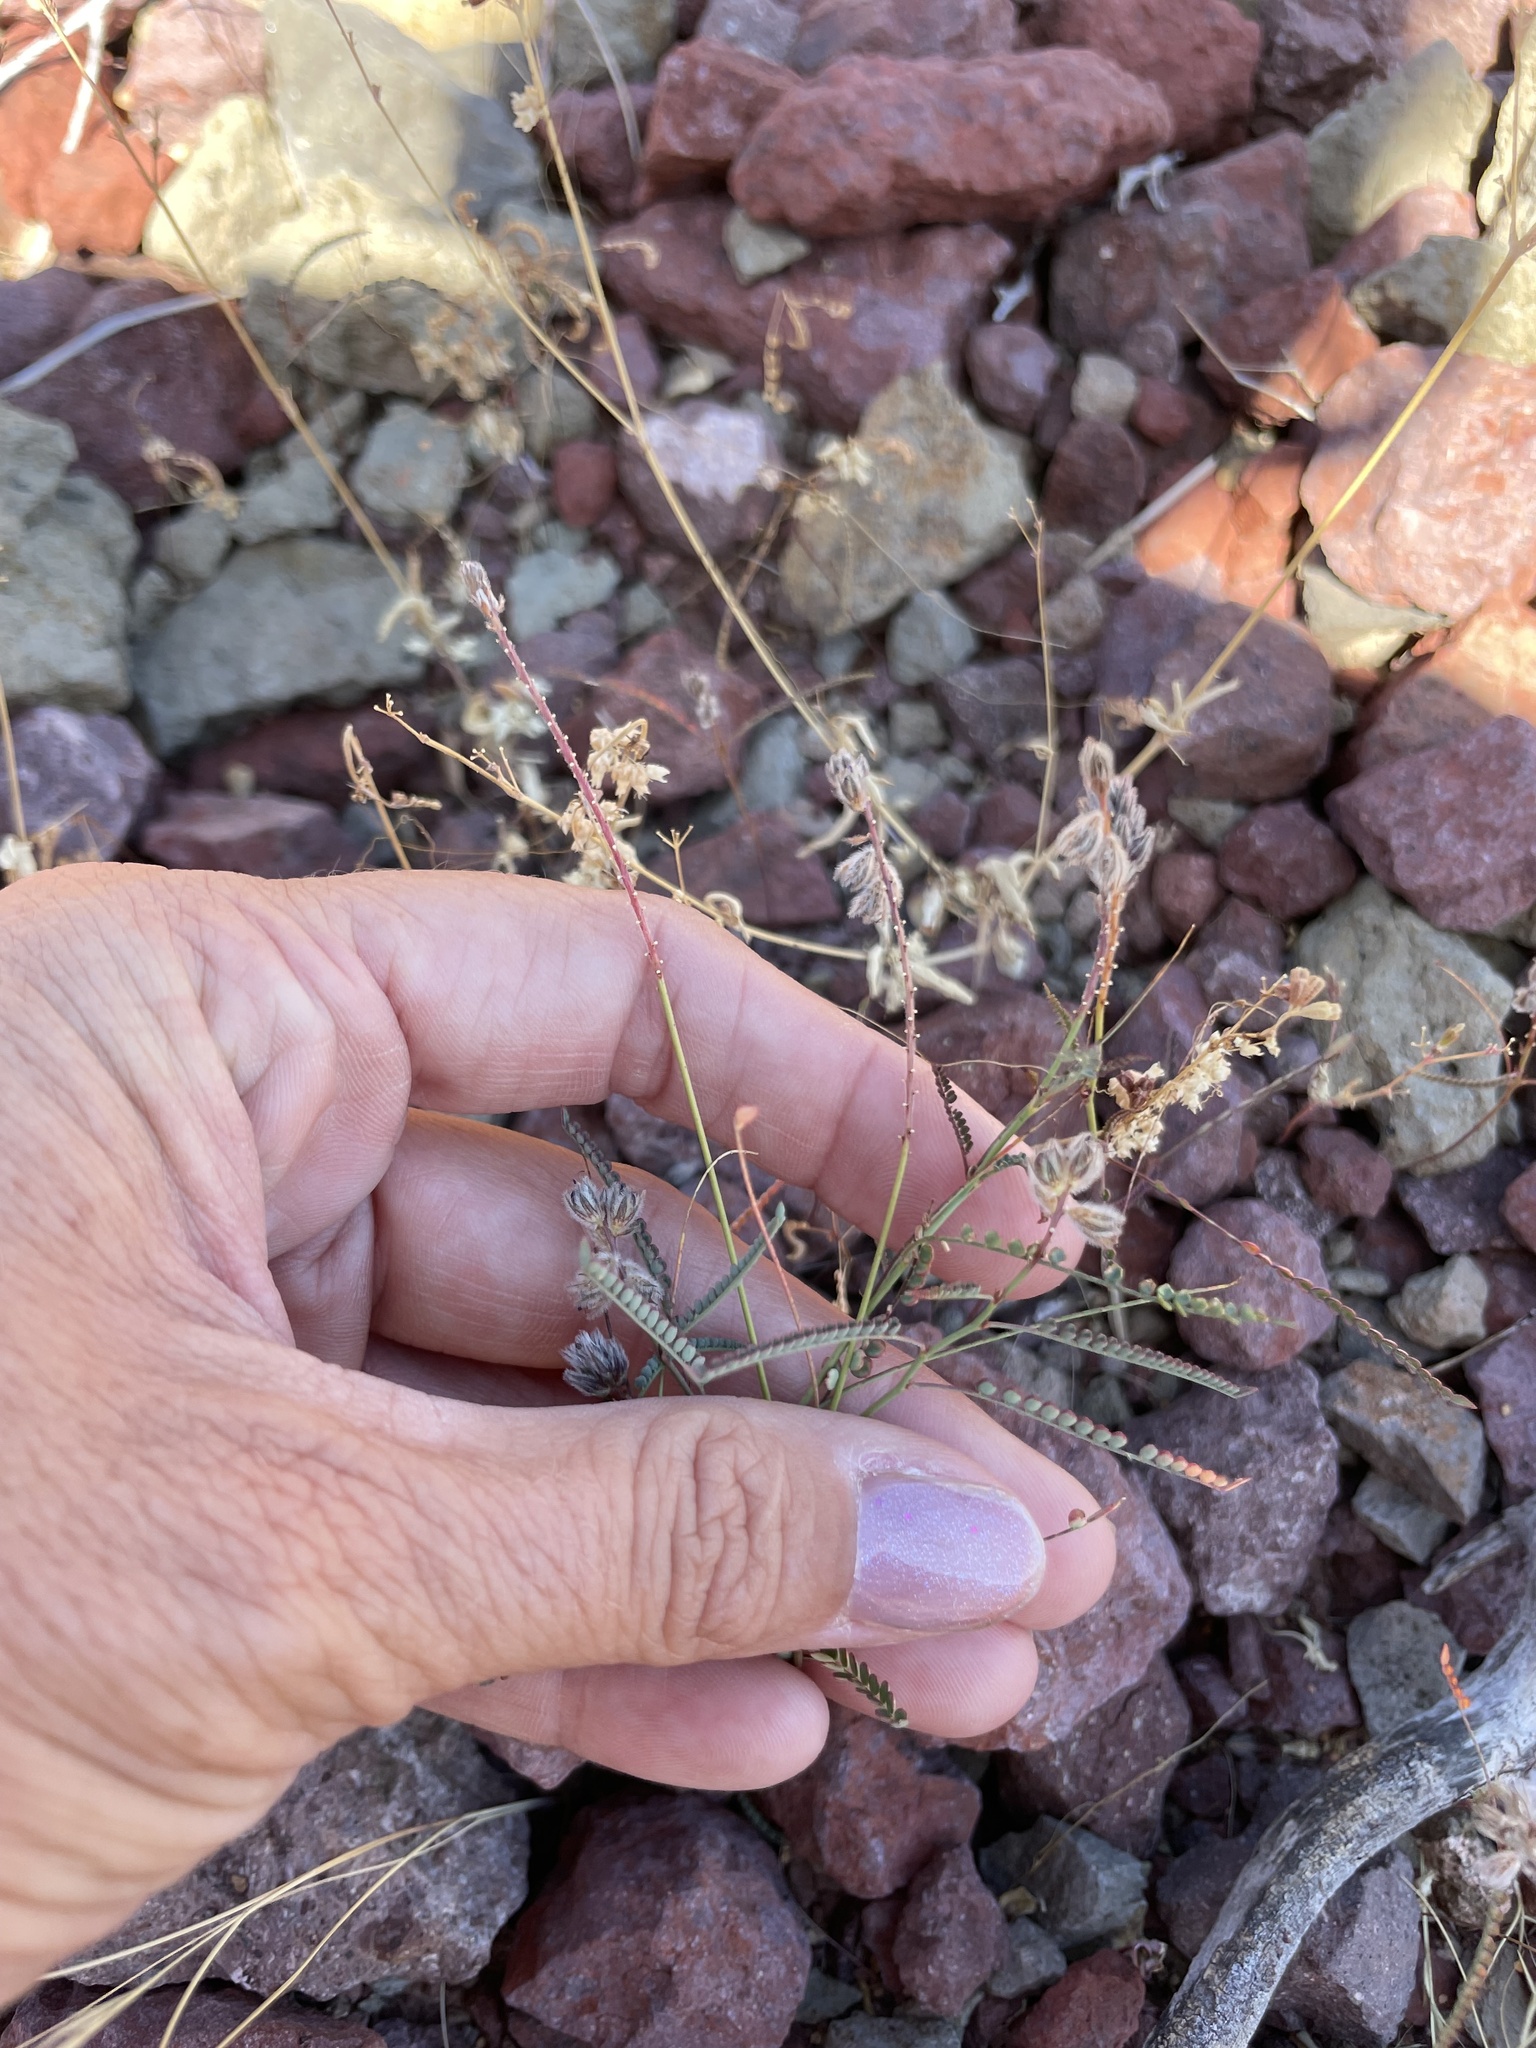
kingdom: Plantae
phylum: Tracheophyta
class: Magnoliopsida
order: Fabales
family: Fabaceae
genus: Marina
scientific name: Marina vetula
